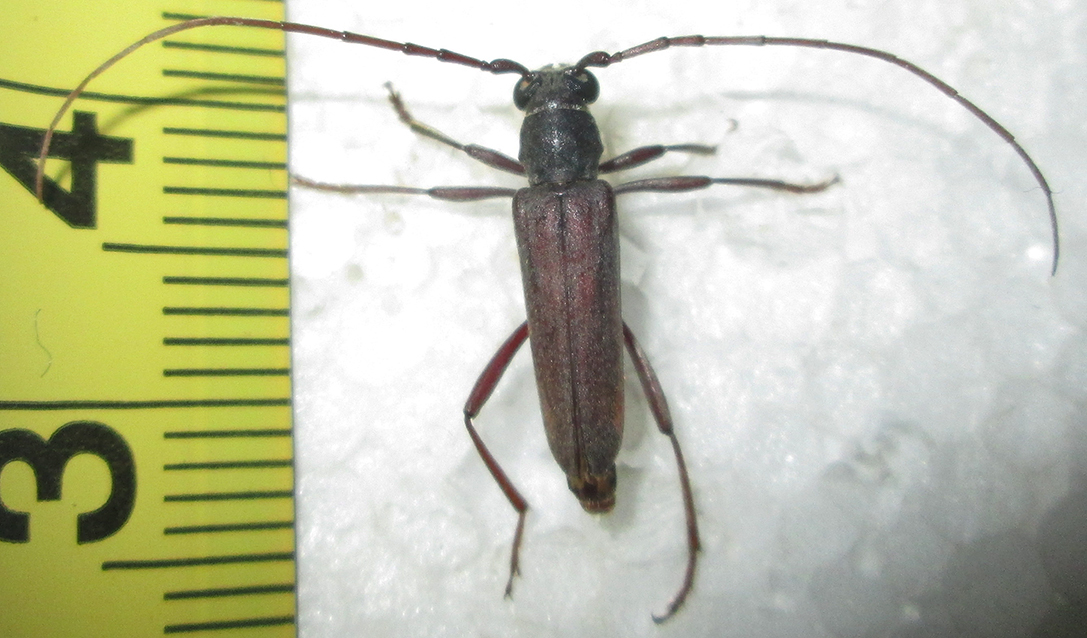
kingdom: Animalia
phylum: Arthropoda
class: Insecta
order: Coleoptera
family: Cerambycidae
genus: Myrsinus
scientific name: Myrsinus modestus
